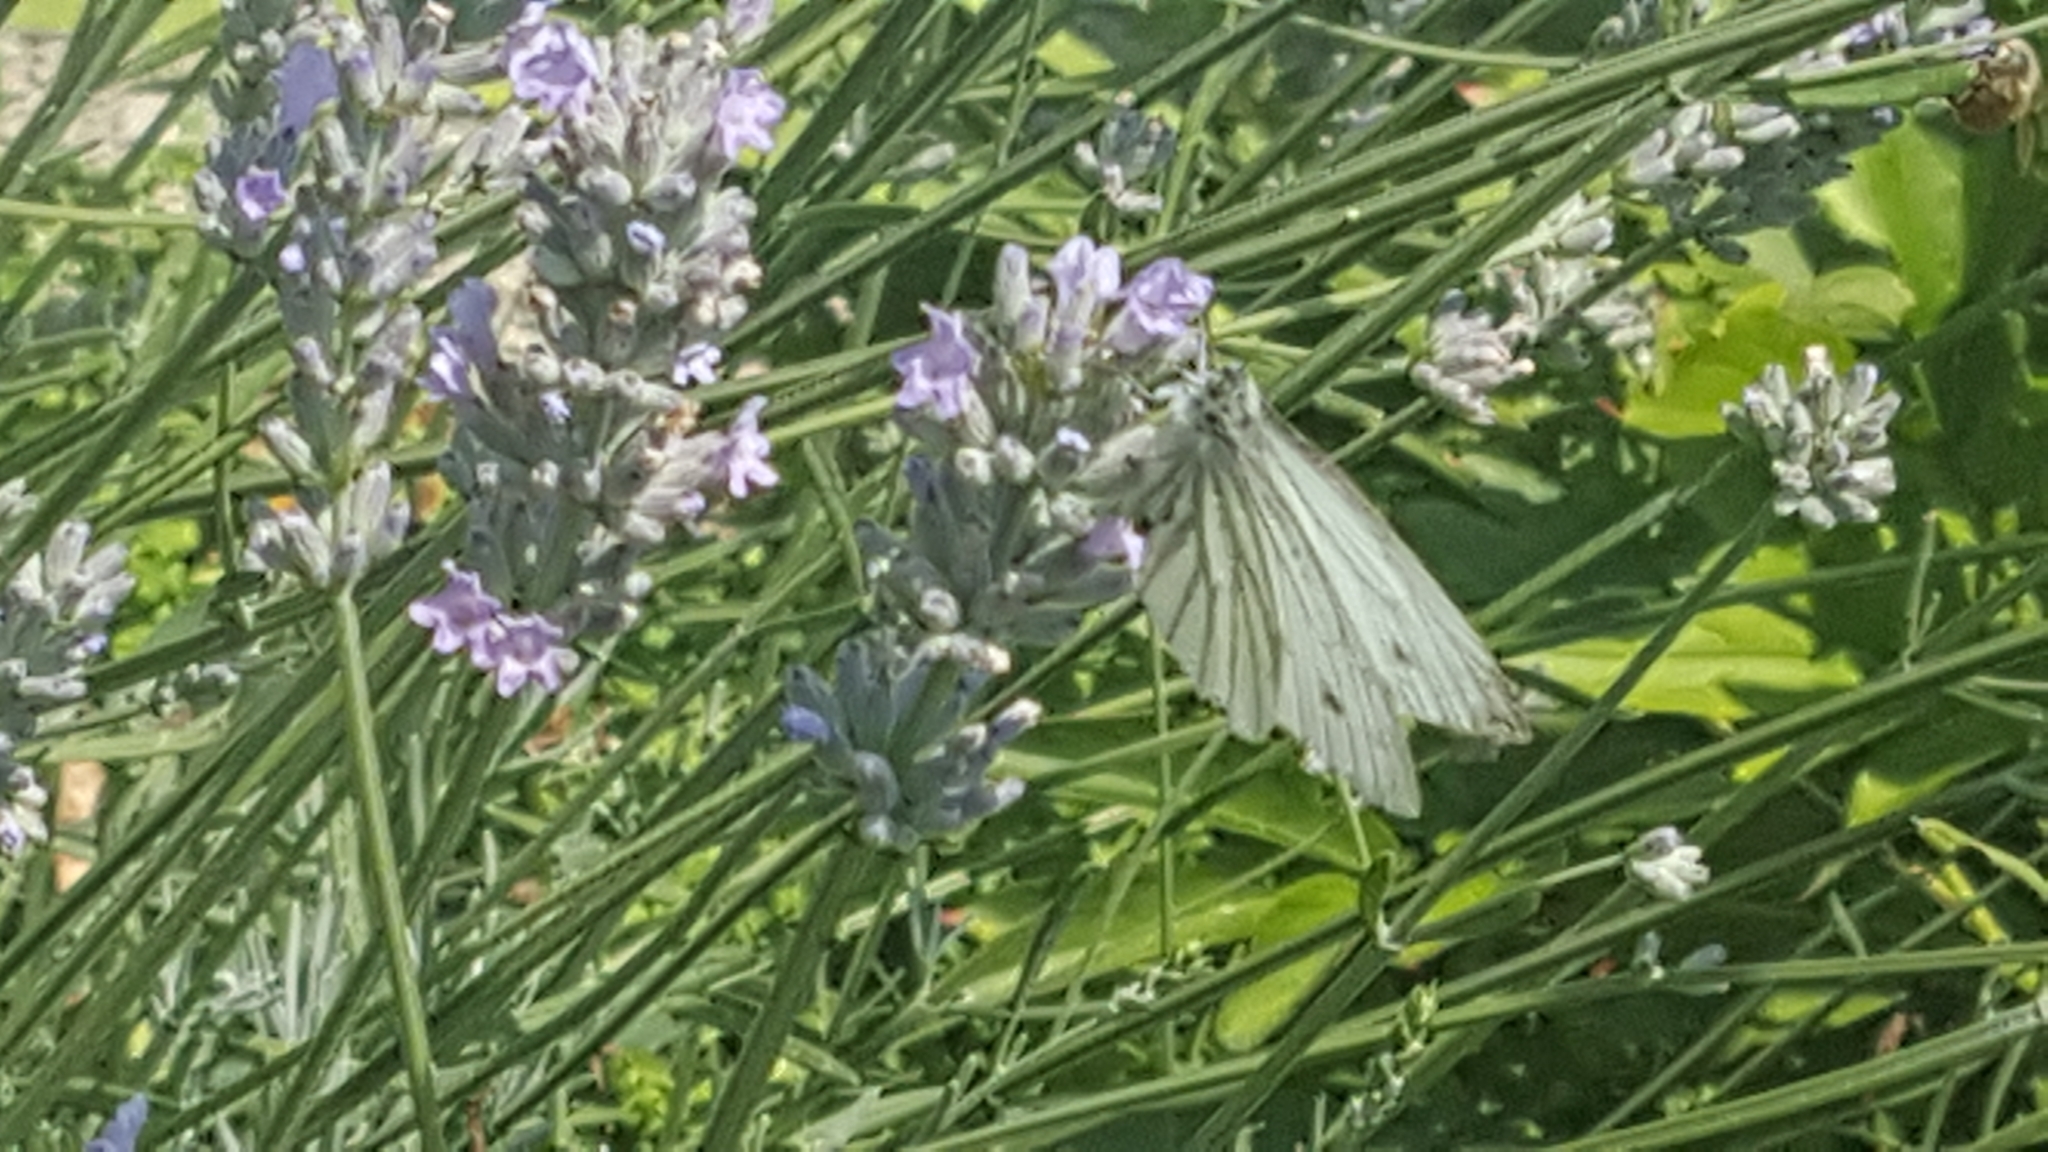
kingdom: Animalia
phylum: Arthropoda
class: Insecta
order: Lepidoptera
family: Pieridae
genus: Pieris
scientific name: Pieris napi
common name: Green-veined white
